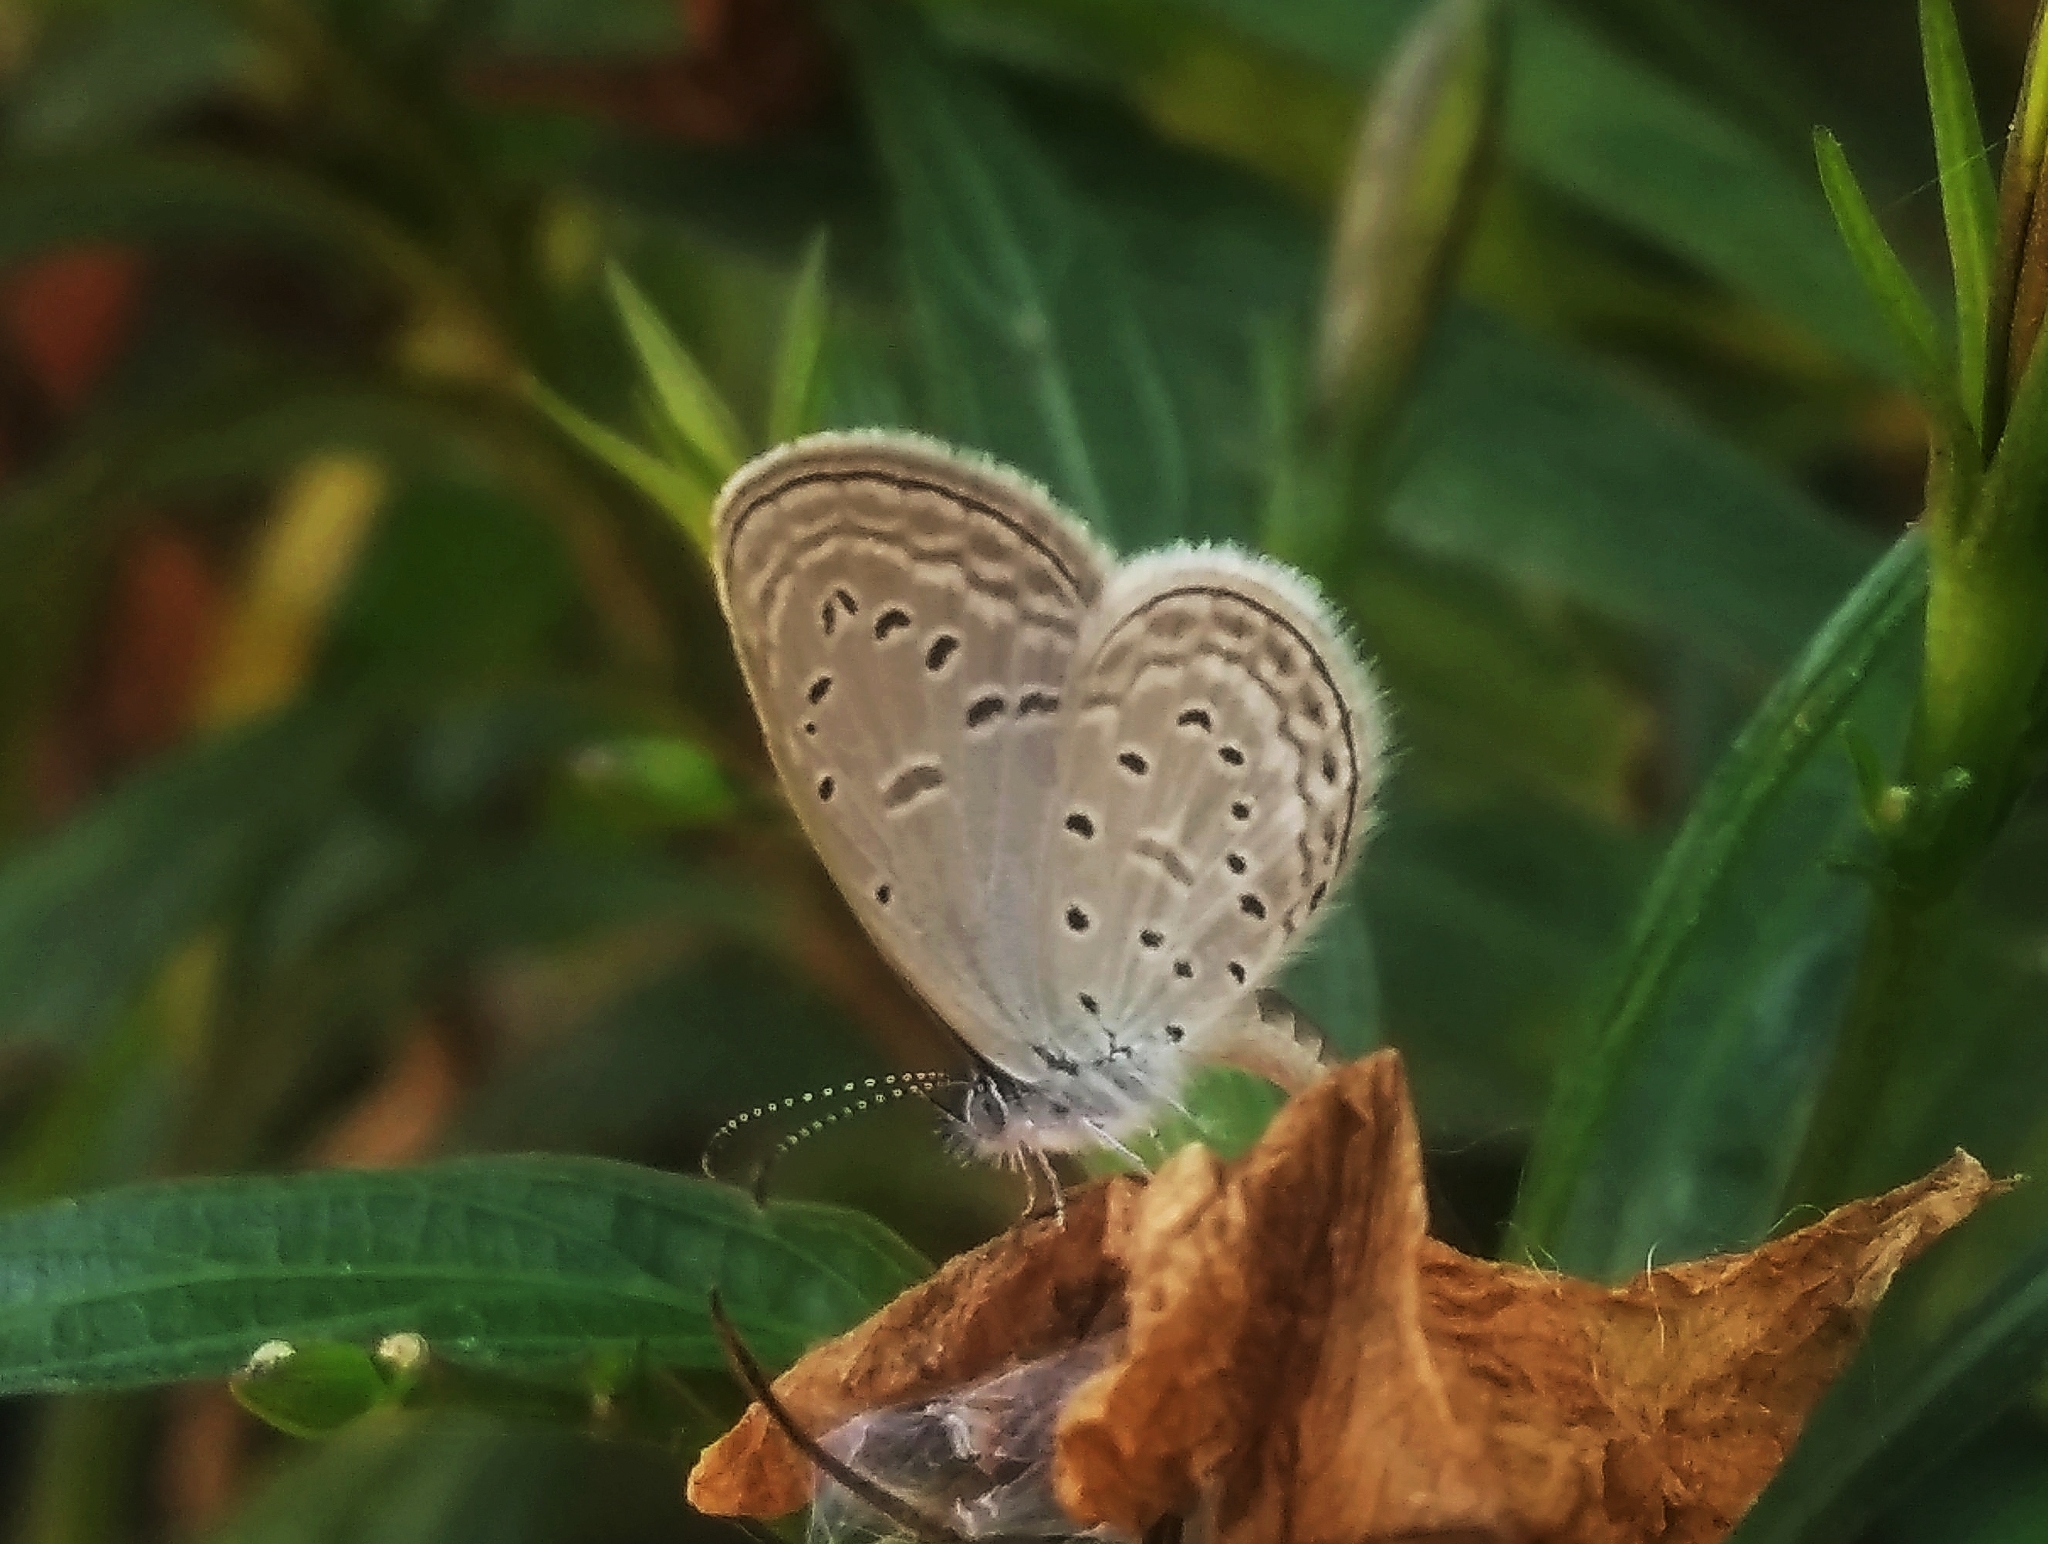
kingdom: Animalia
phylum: Arthropoda
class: Insecta
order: Lepidoptera
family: Lycaenidae
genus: Zizula
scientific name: Zizula hylax
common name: Gaika blue
